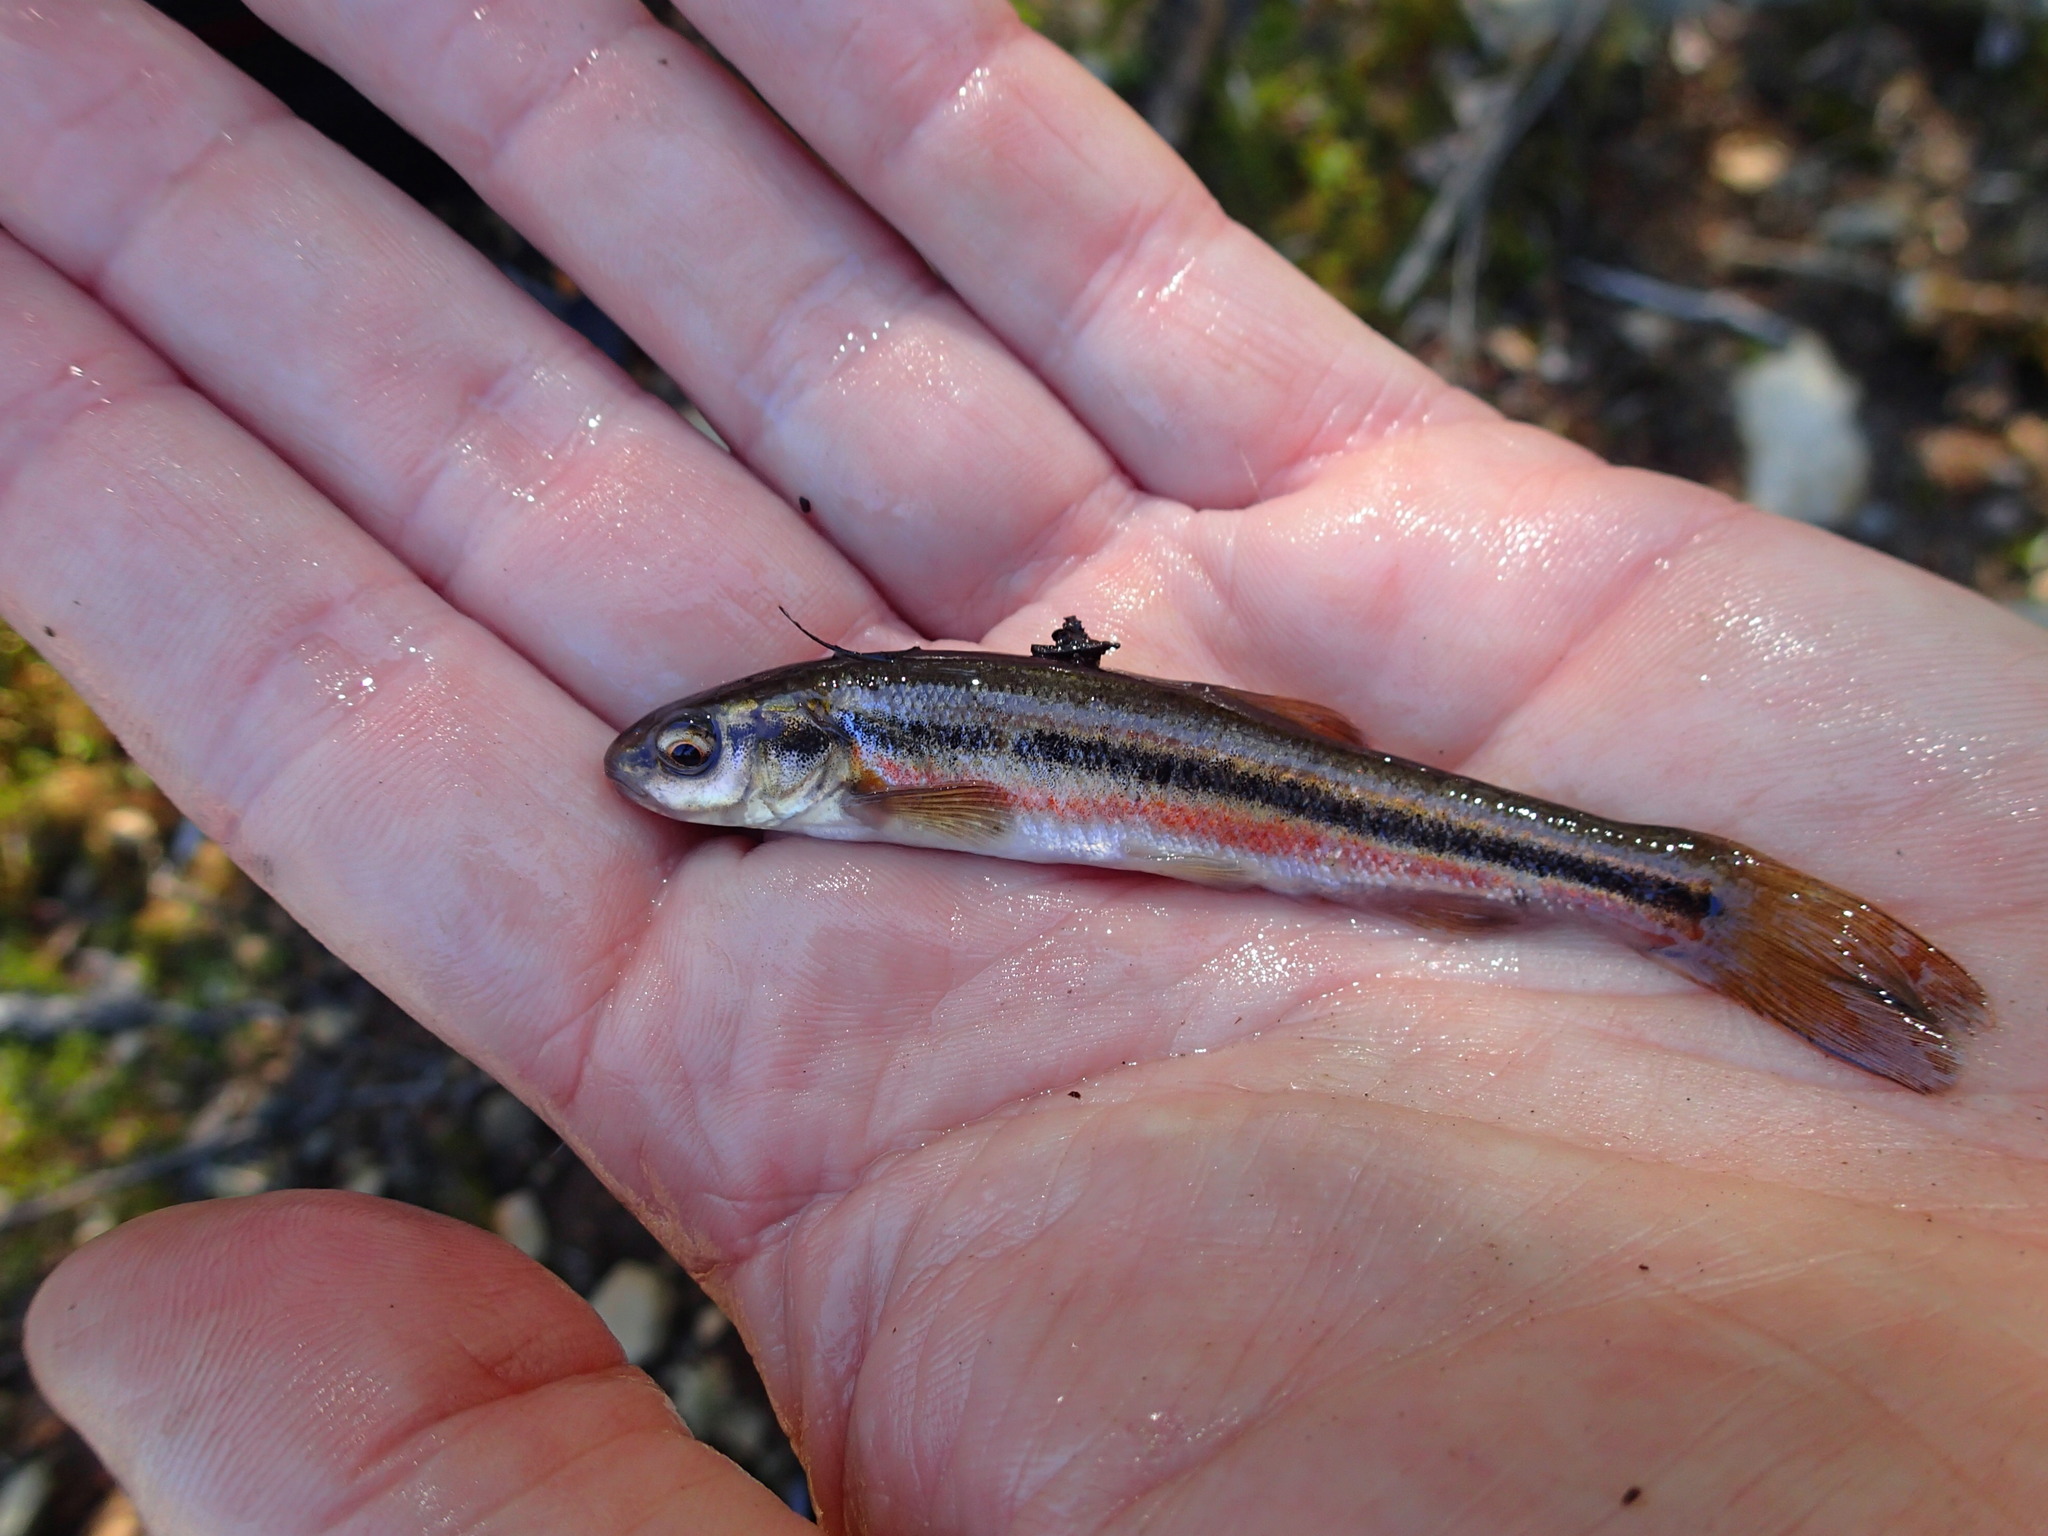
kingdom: Animalia
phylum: Chordata
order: Cypriniformes
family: Cyprinidae
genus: Margariscus
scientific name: Margariscus nachtriebi
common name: Northern pearl dace
